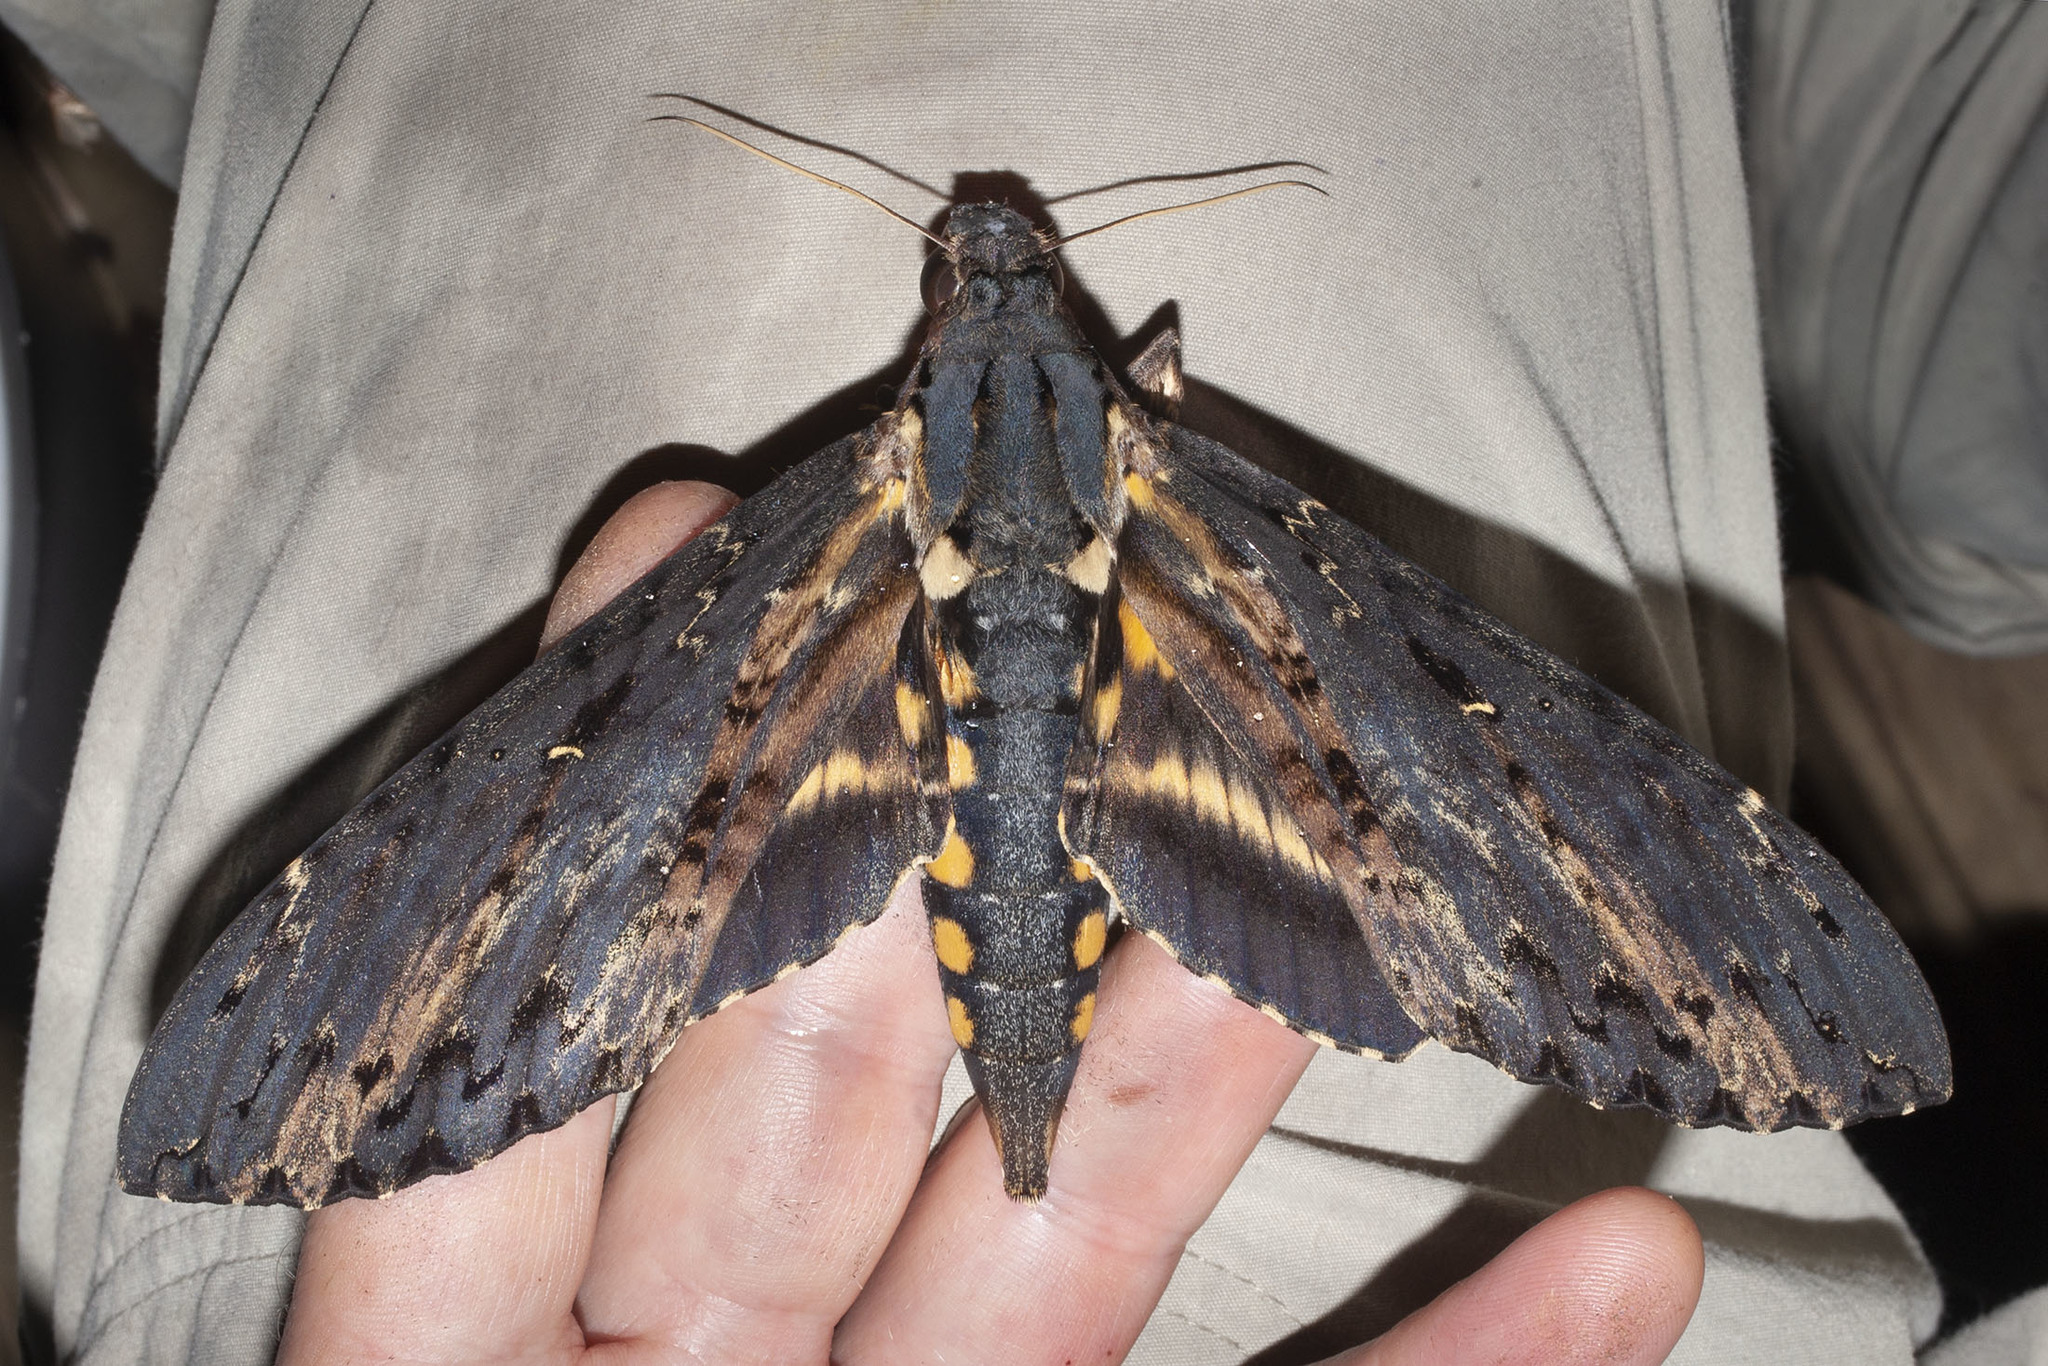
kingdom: Animalia
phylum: Arthropoda
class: Insecta
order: Lepidoptera
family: Sphingidae
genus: Neococytius
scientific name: Neococytius cluentius
